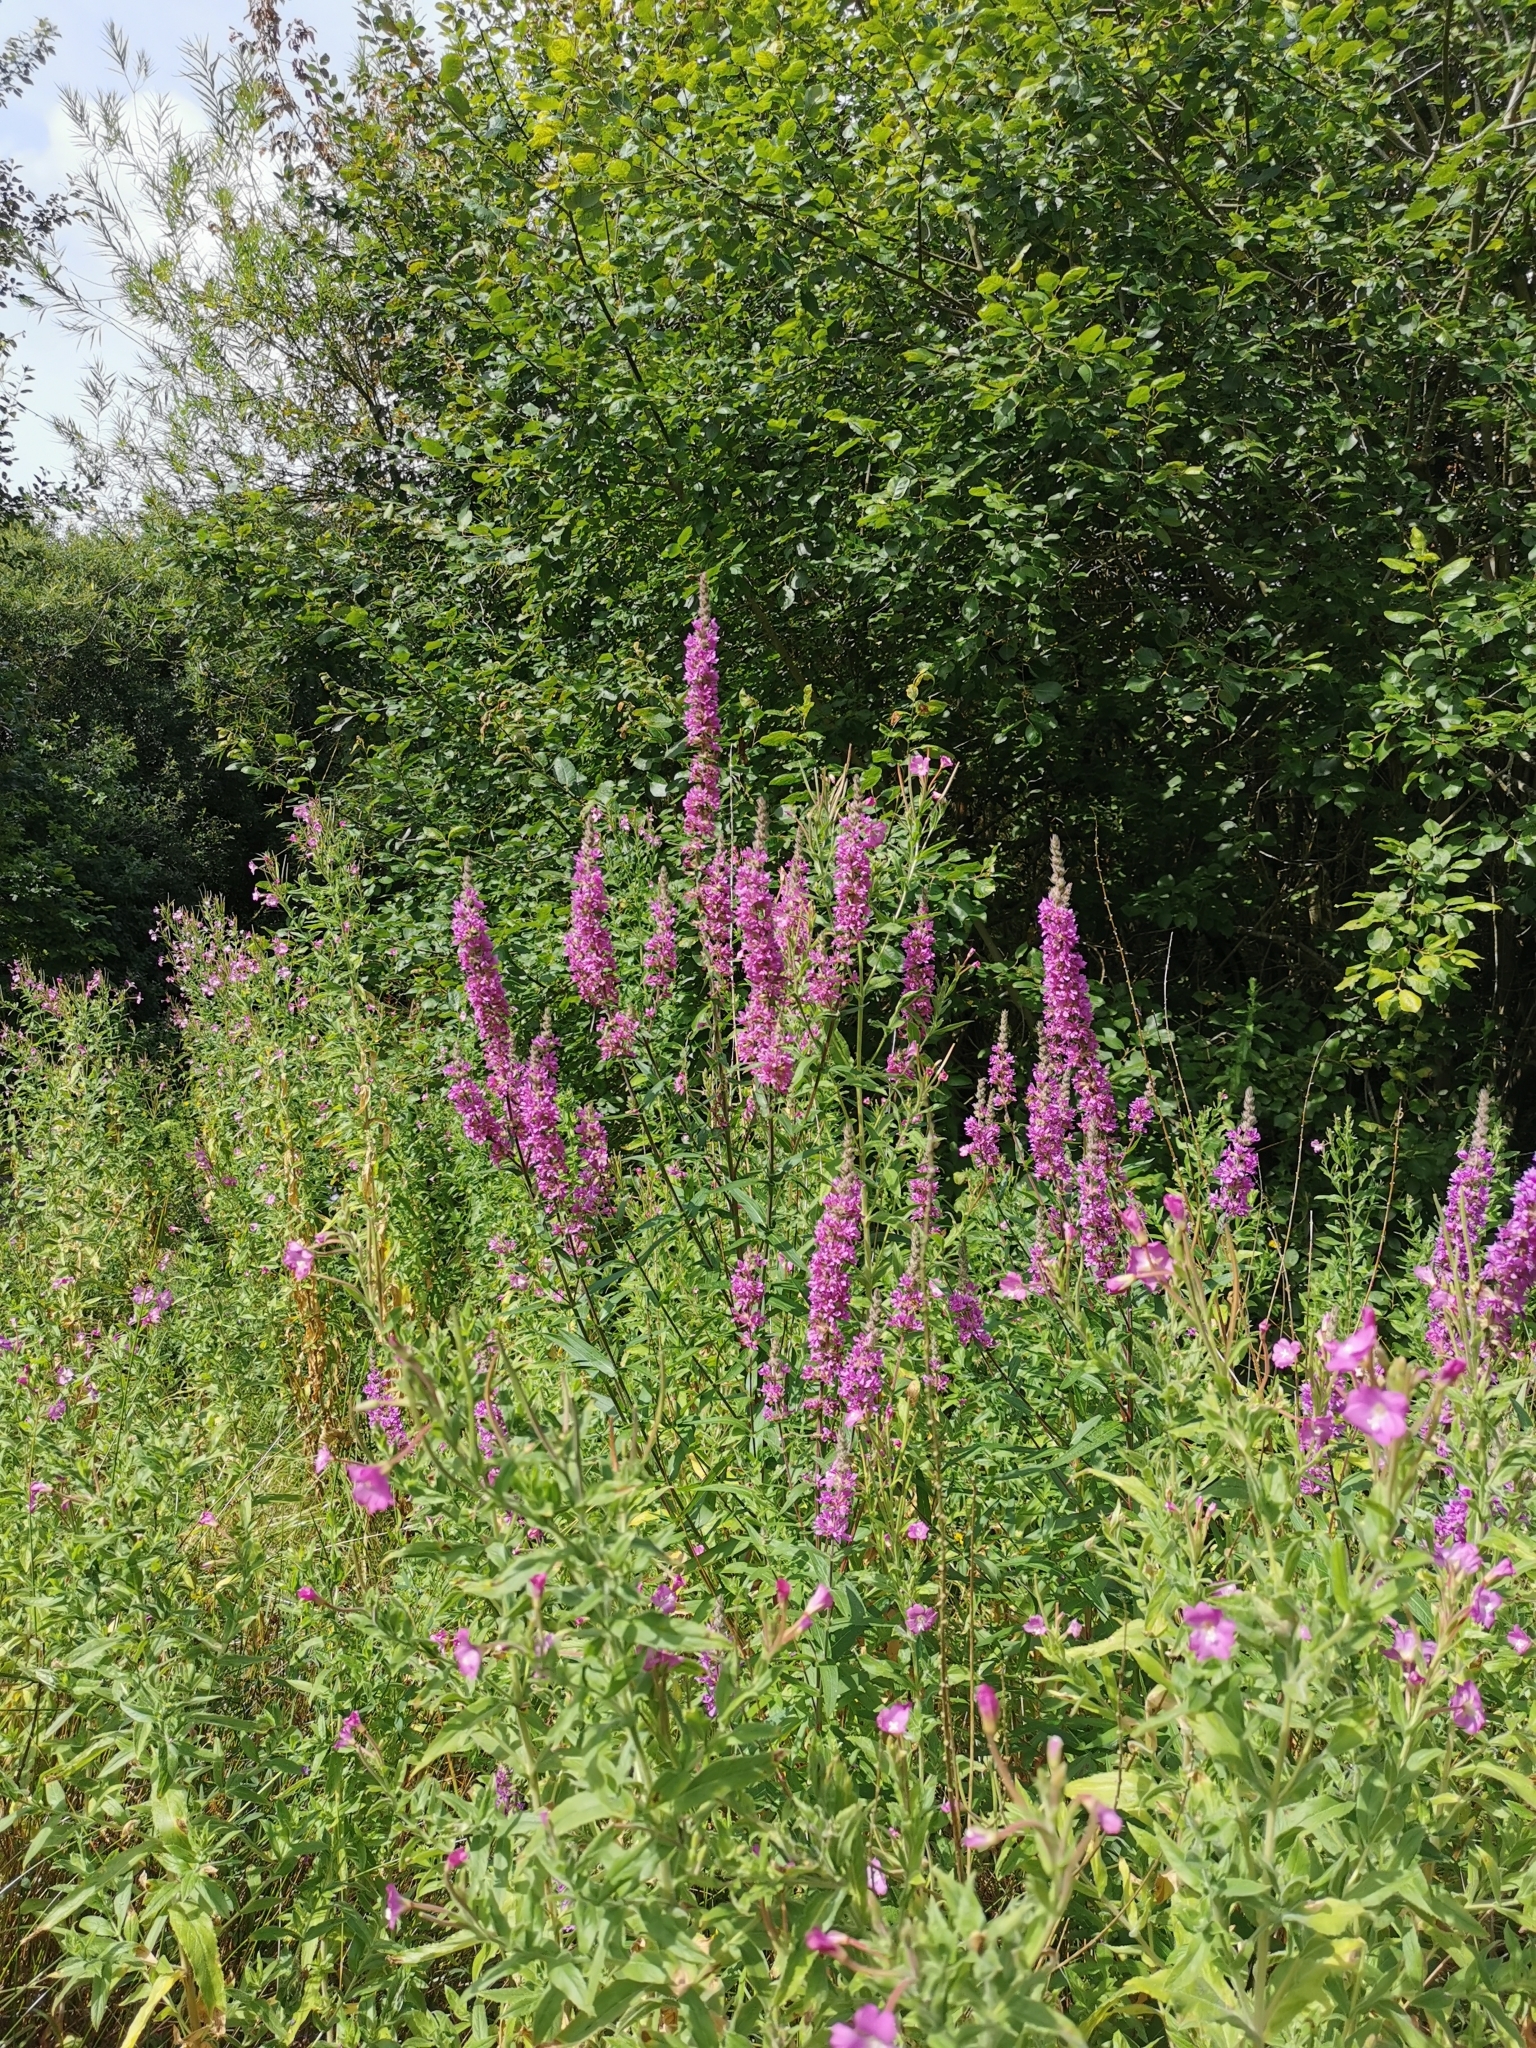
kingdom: Plantae
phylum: Tracheophyta
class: Magnoliopsida
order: Myrtales
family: Lythraceae
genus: Lythrum
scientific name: Lythrum salicaria
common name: Purple loosestrife
